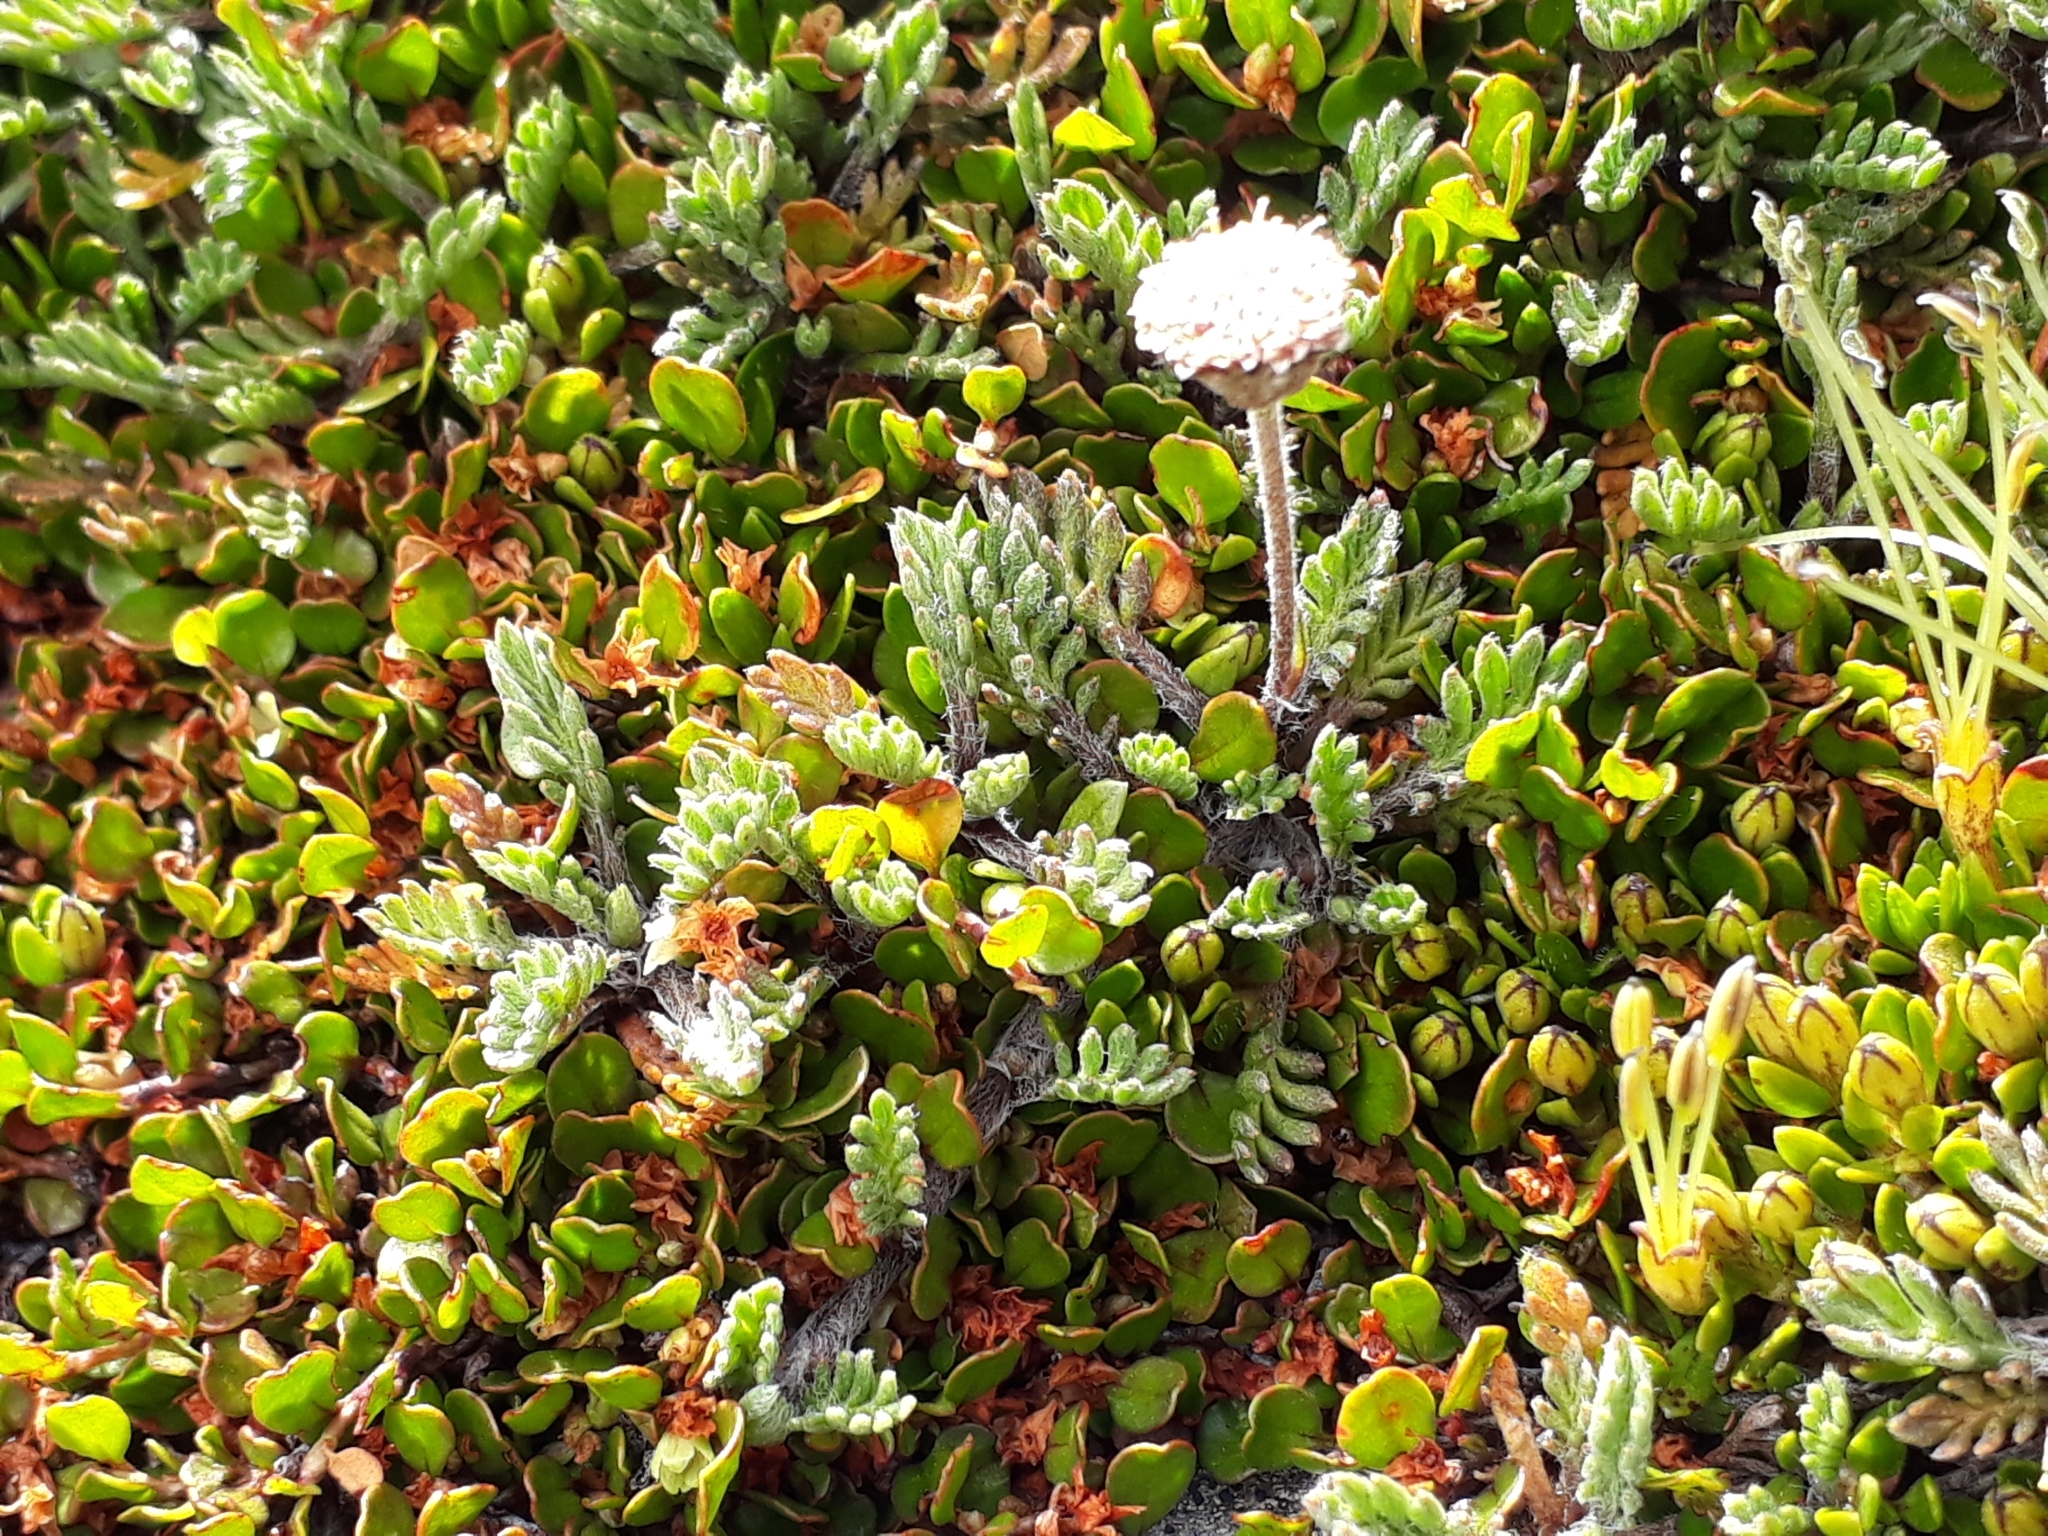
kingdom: Plantae
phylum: Tracheophyta
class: Magnoliopsida
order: Asterales
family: Asteraceae
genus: Leptinella
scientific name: Leptinella pectinata
